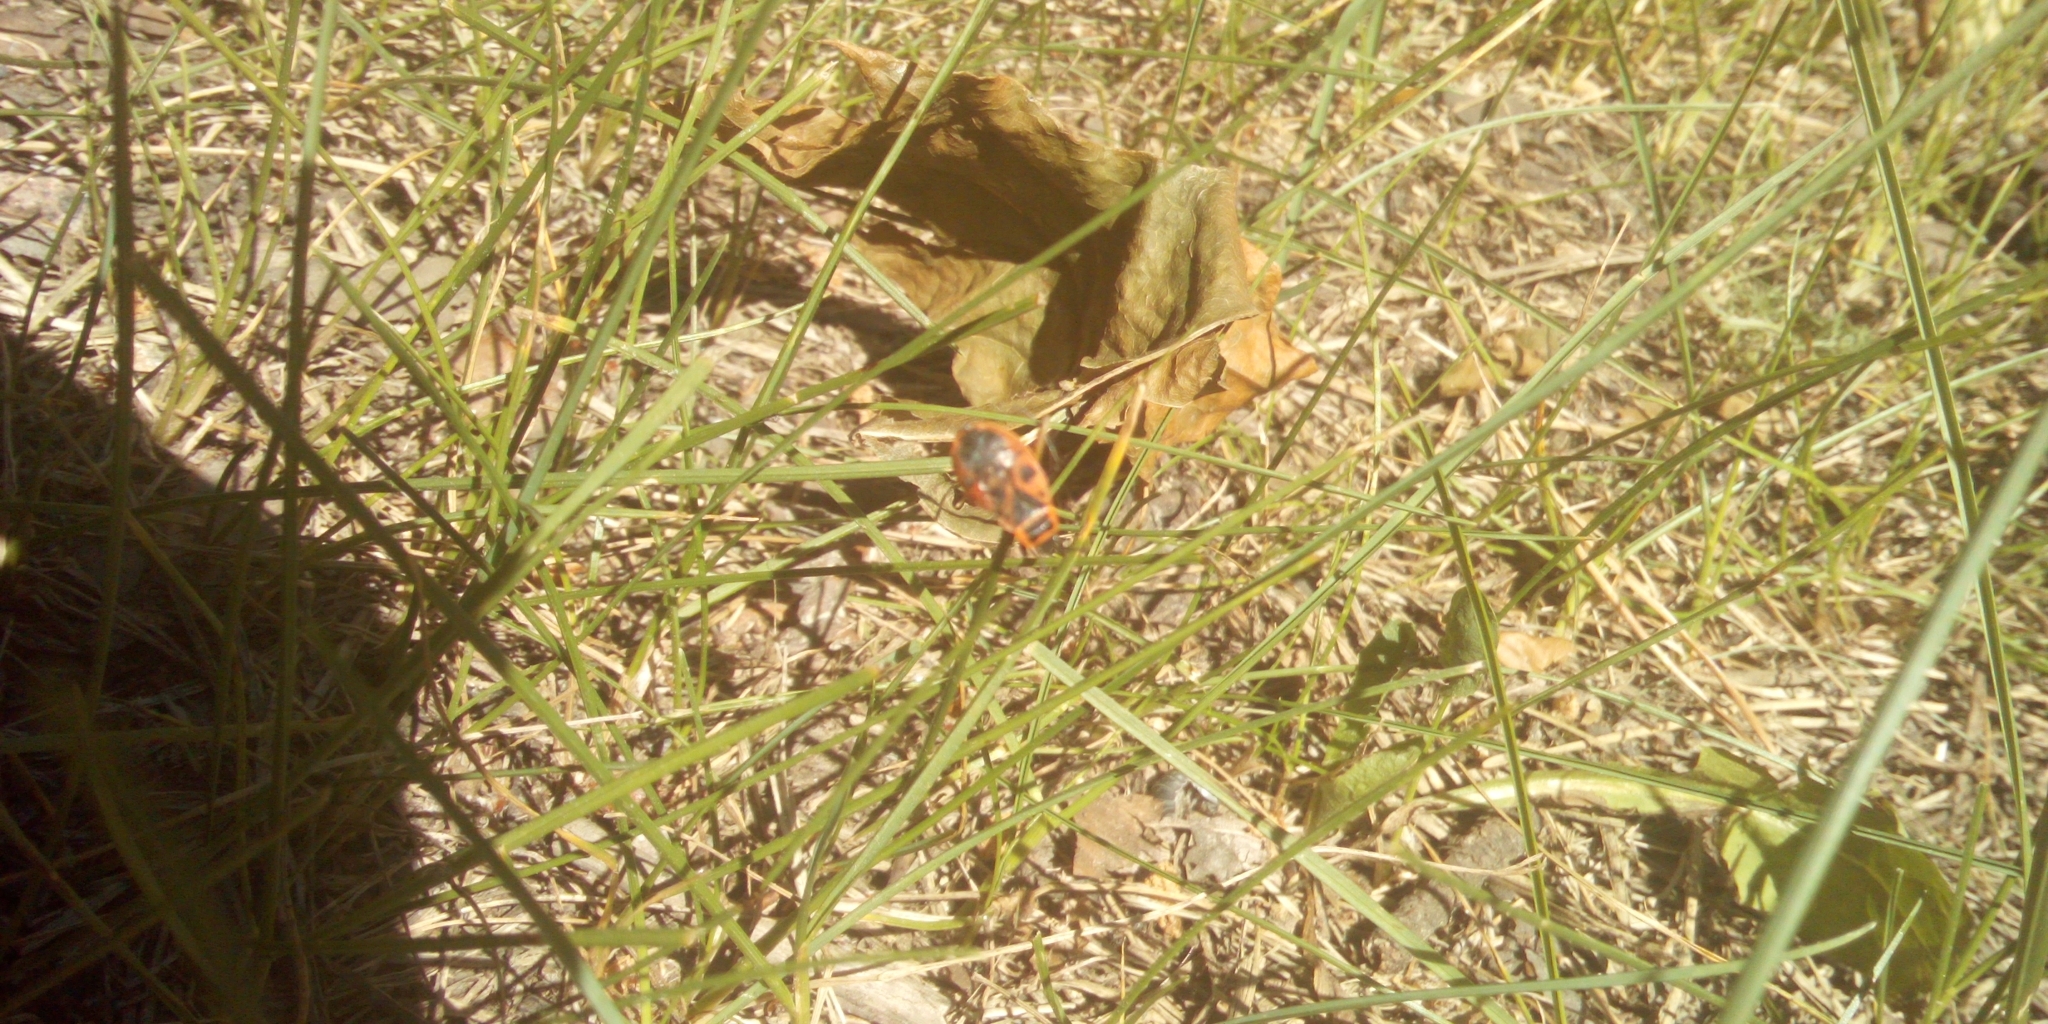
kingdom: Animalia
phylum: Arthropoda
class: Insecta
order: Hemiptera
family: Pyrrhocoridae
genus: Pyrrhocoris
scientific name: Pyrrhocoris apterus
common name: Firebug
